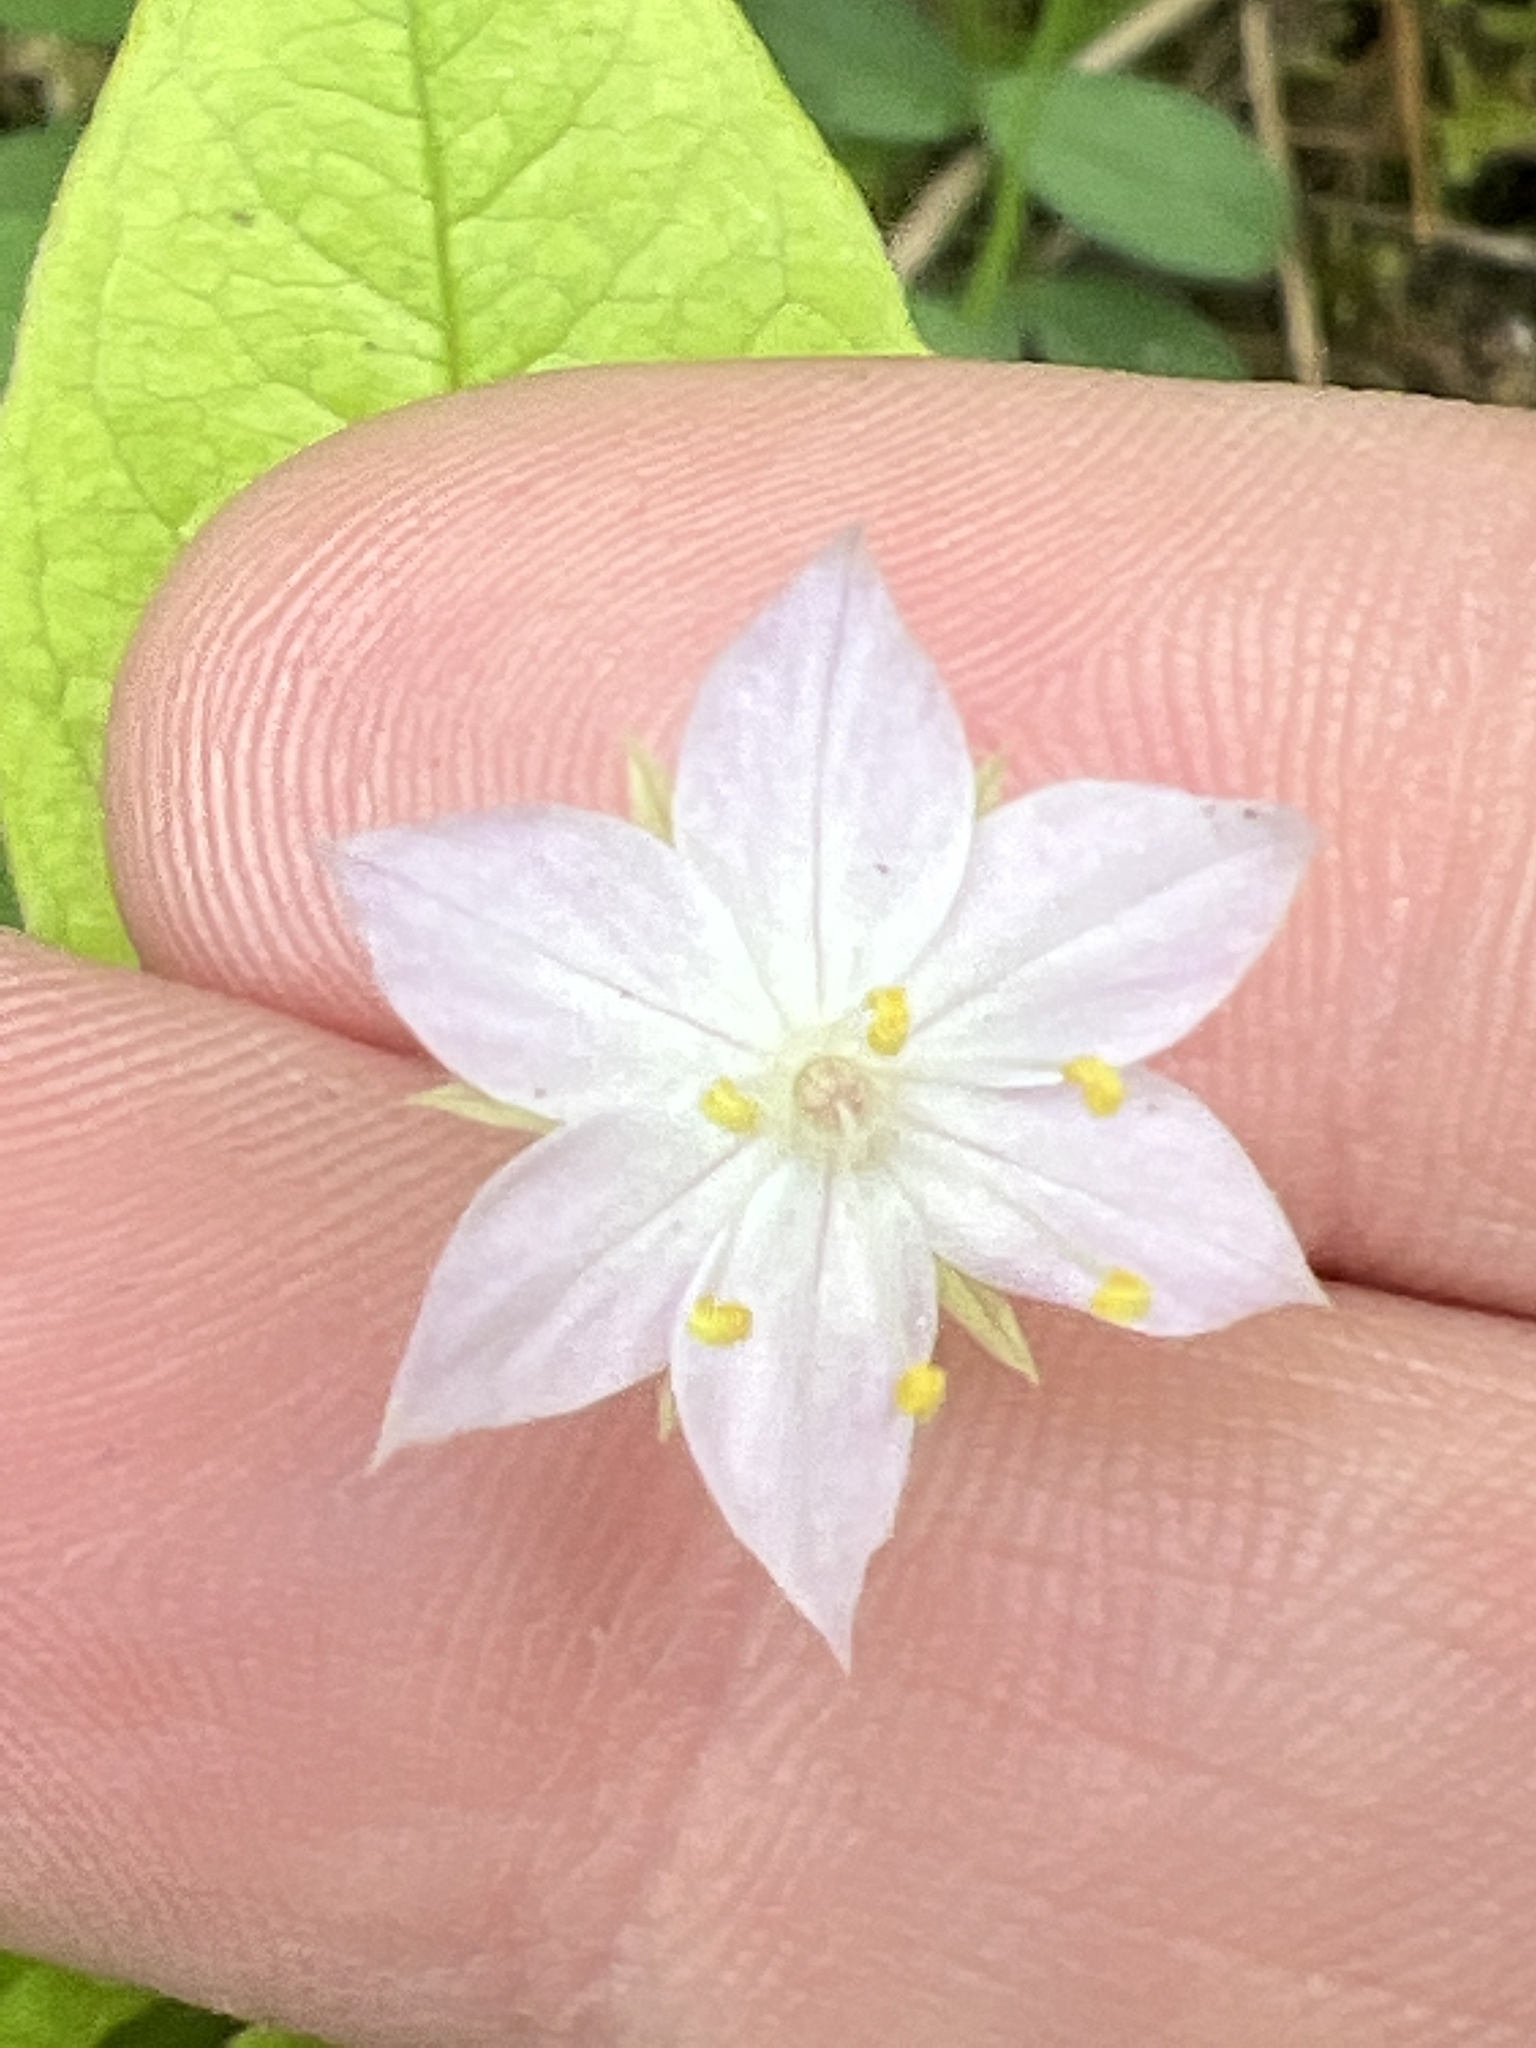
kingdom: Plantae
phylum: Tracheophyta
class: Magnoliopsida
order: Ericales
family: Primulaceae
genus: Lysimachia
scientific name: Lysimachia latifolia
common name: Pacific starflower
